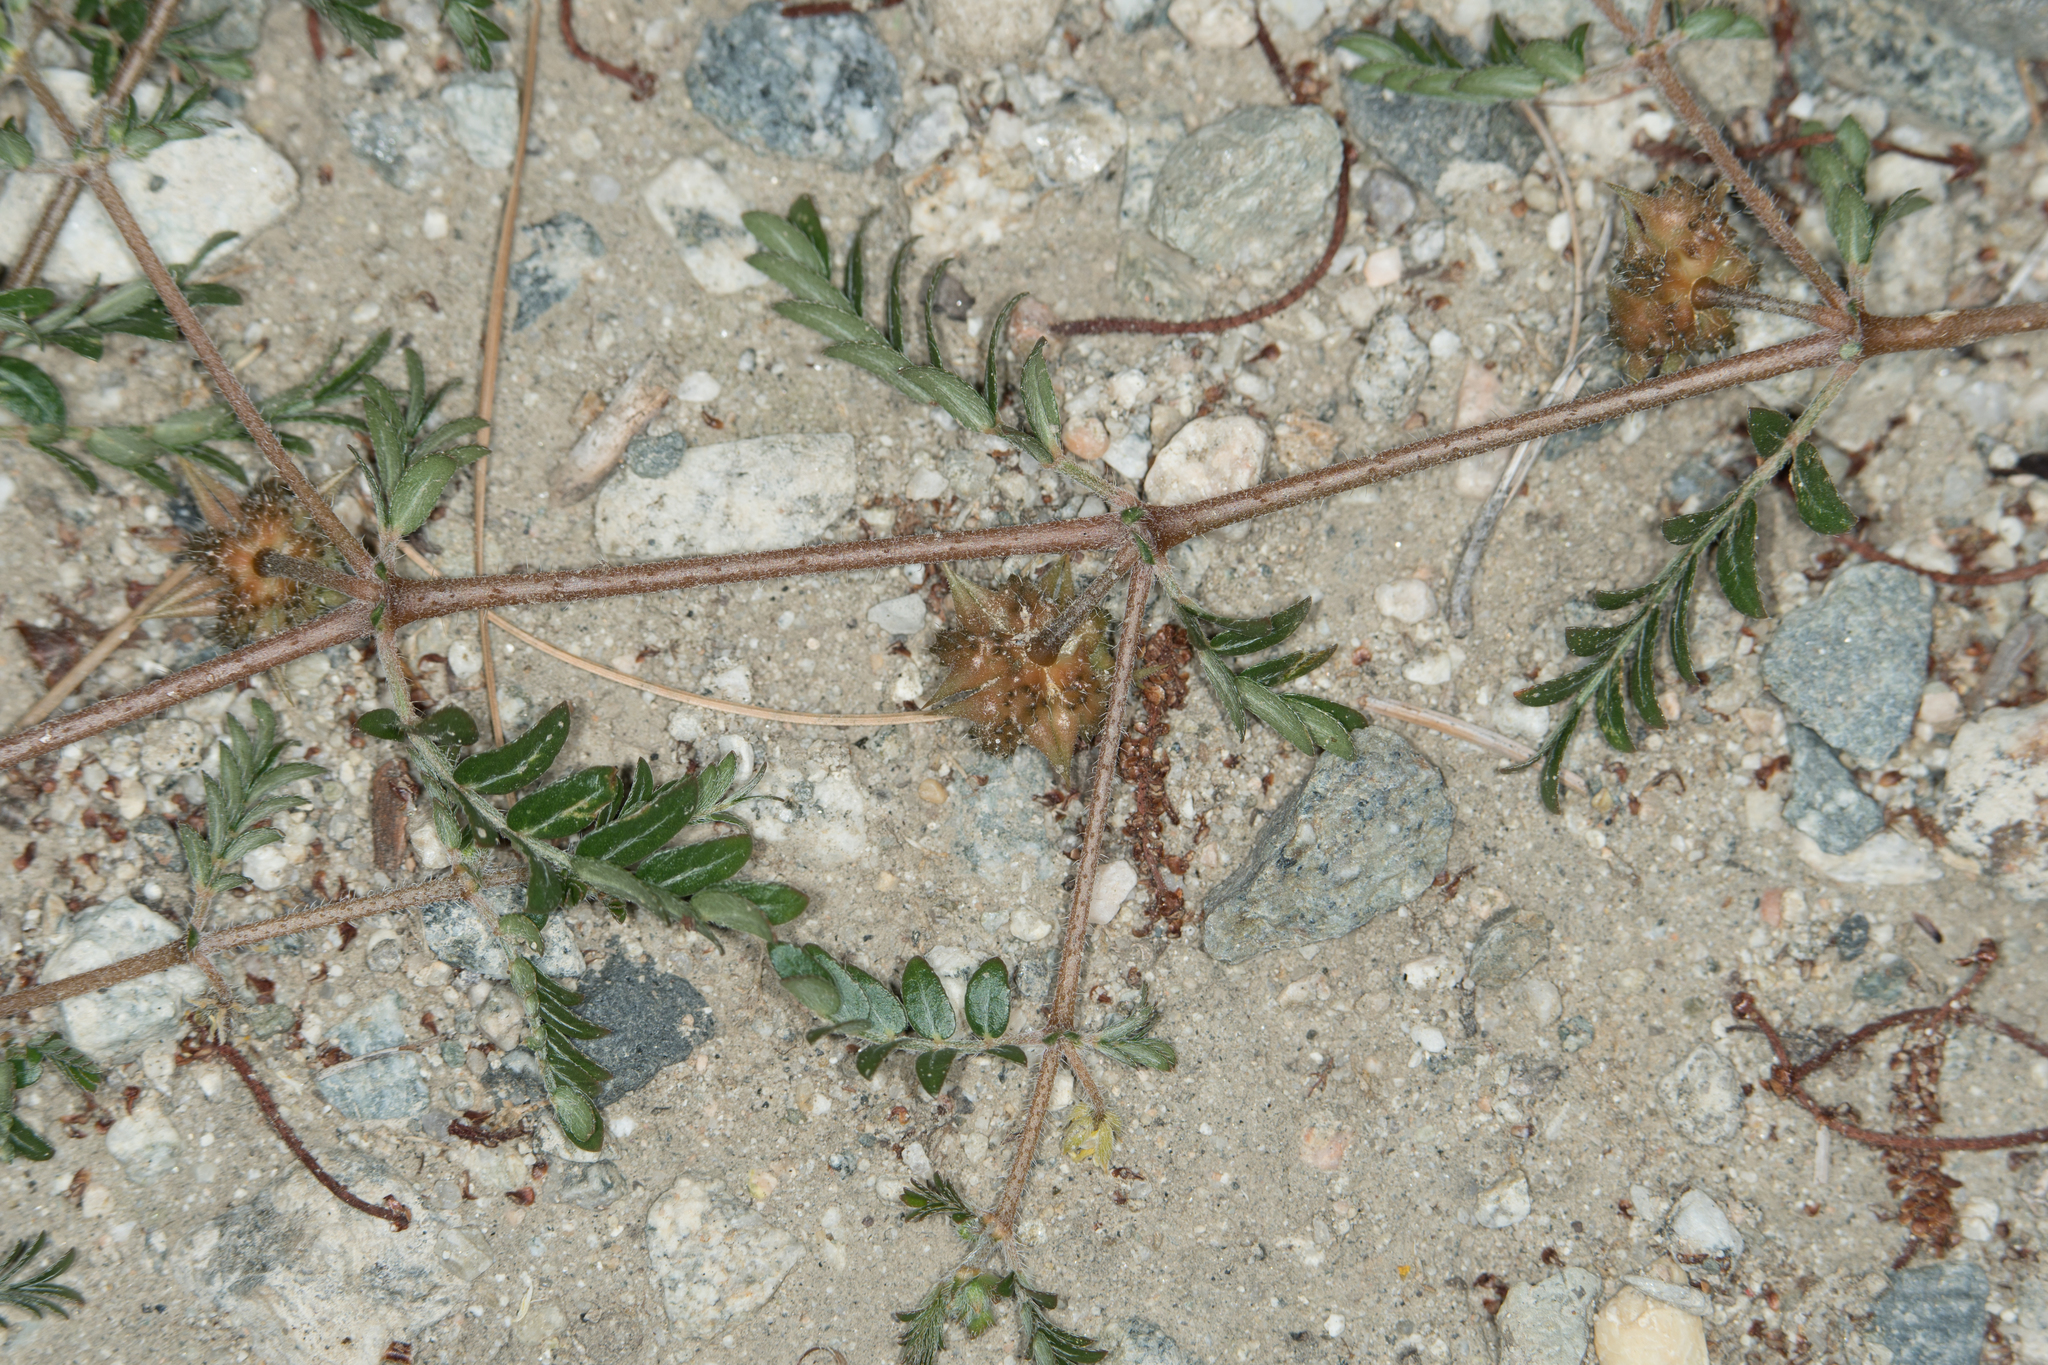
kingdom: Plantae
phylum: Tracheophyta
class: Magnoliopsida
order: Zygophyllales
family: Zygophyllaceae
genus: Tribulus
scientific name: Tribulus terrestris
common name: Puncturevine
